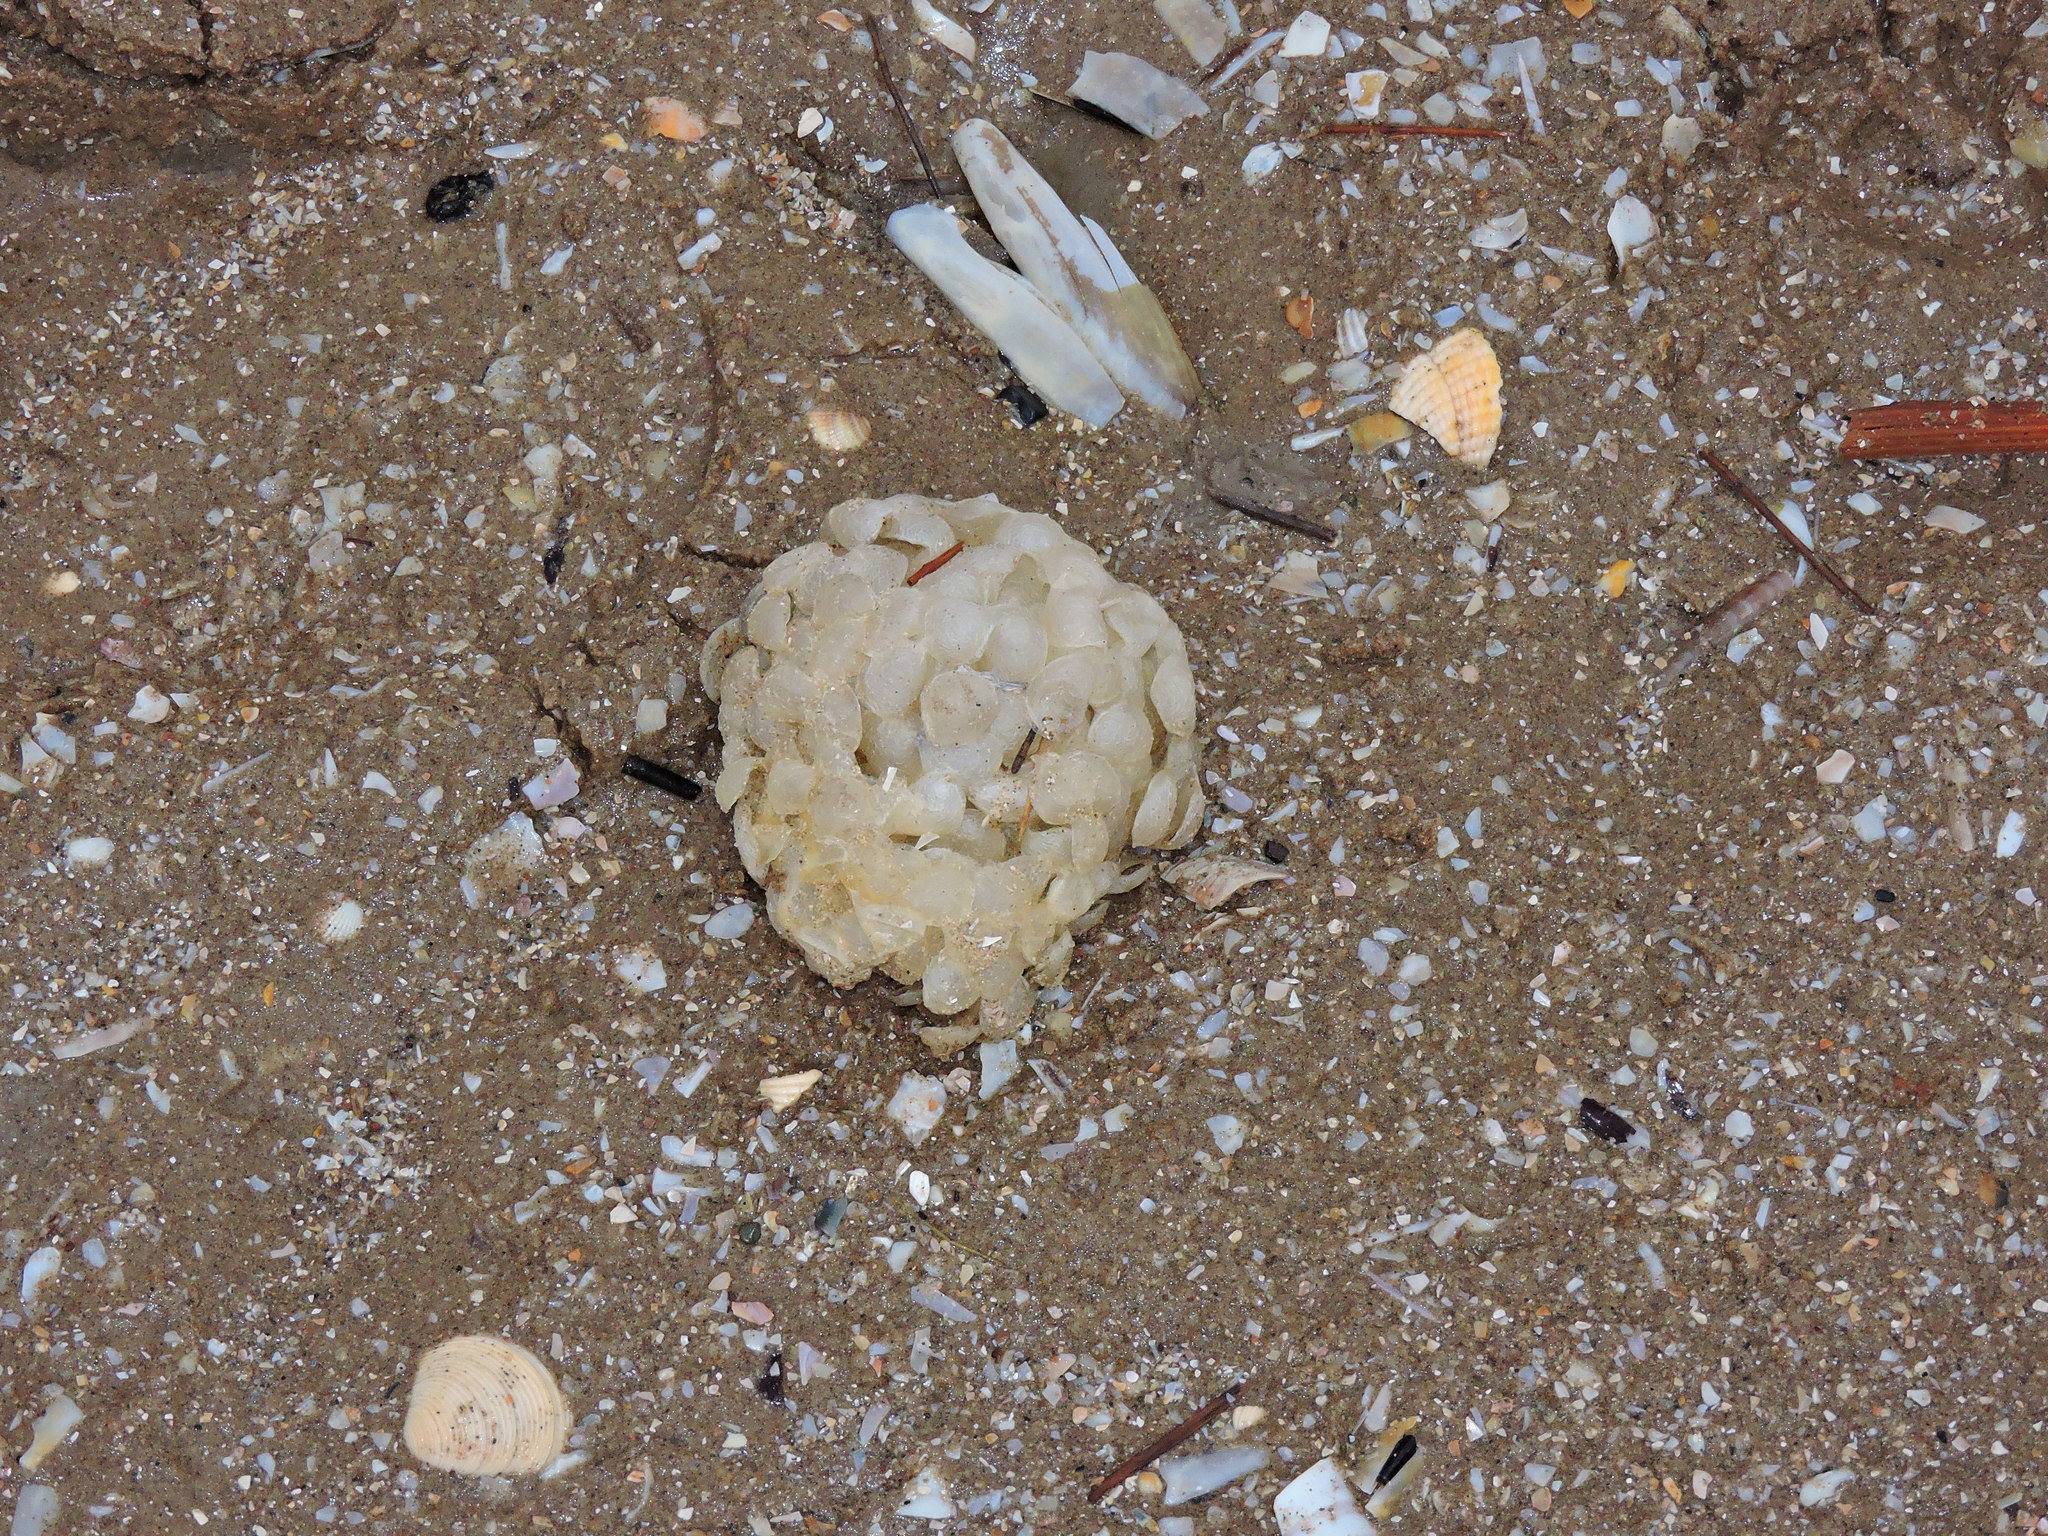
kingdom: Animalia
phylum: Mollusca
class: Gastropoda
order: Neogastropoda
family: Buccinidae
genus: Buccinum
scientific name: Buccinum undatum
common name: Common whelk
